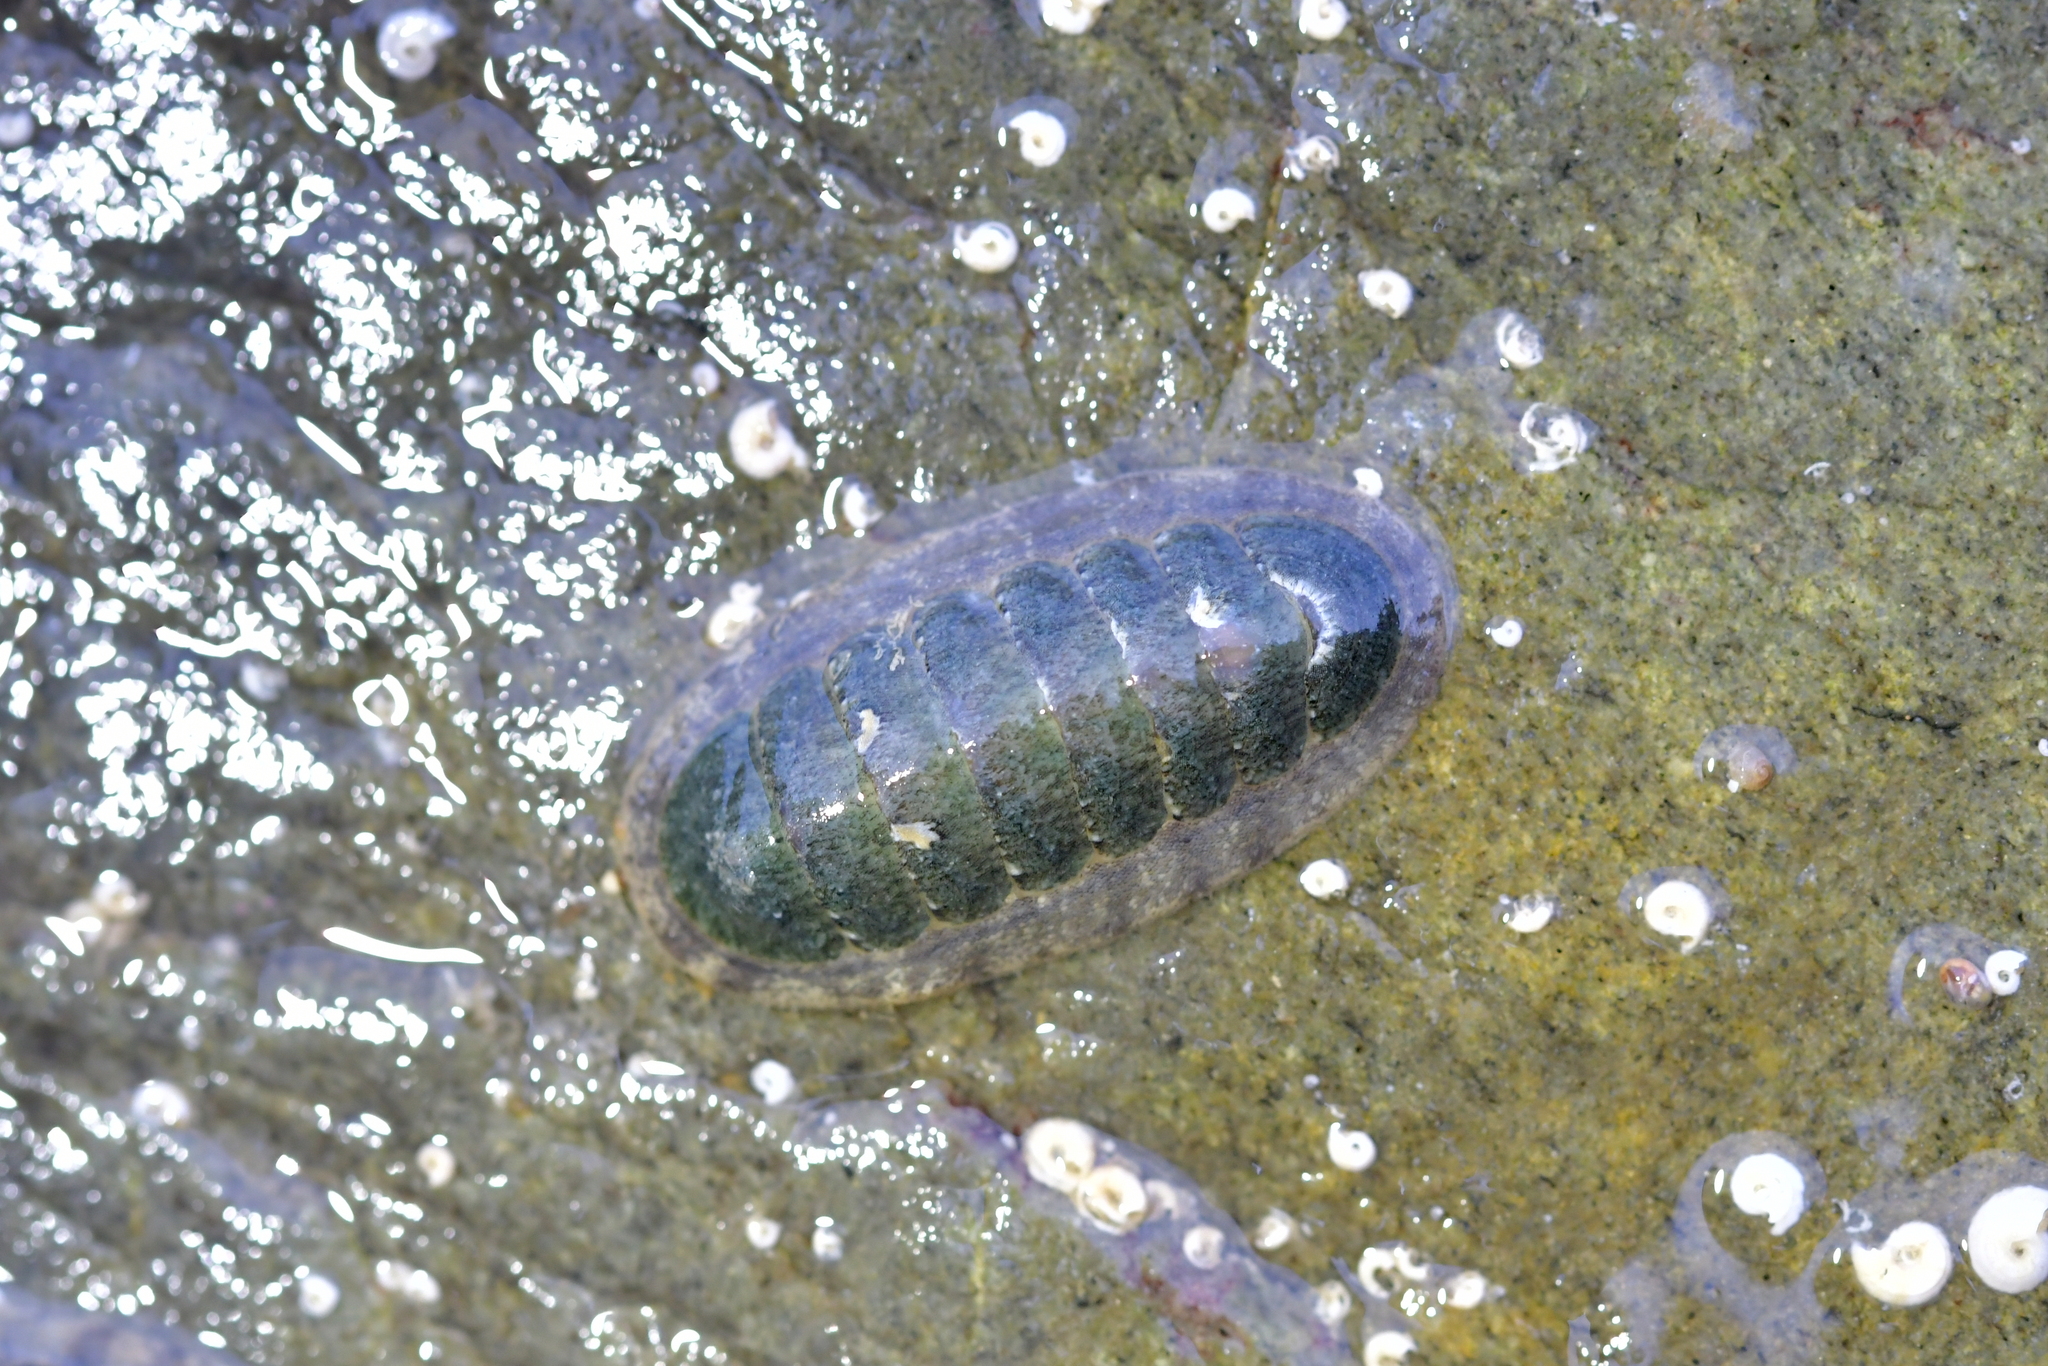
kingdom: Animalia
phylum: Mollusca
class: Polyplacophora
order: Chitonida
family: Ischnochitonidae
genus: Ischnochiton
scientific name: Ischnochiton maorianus
